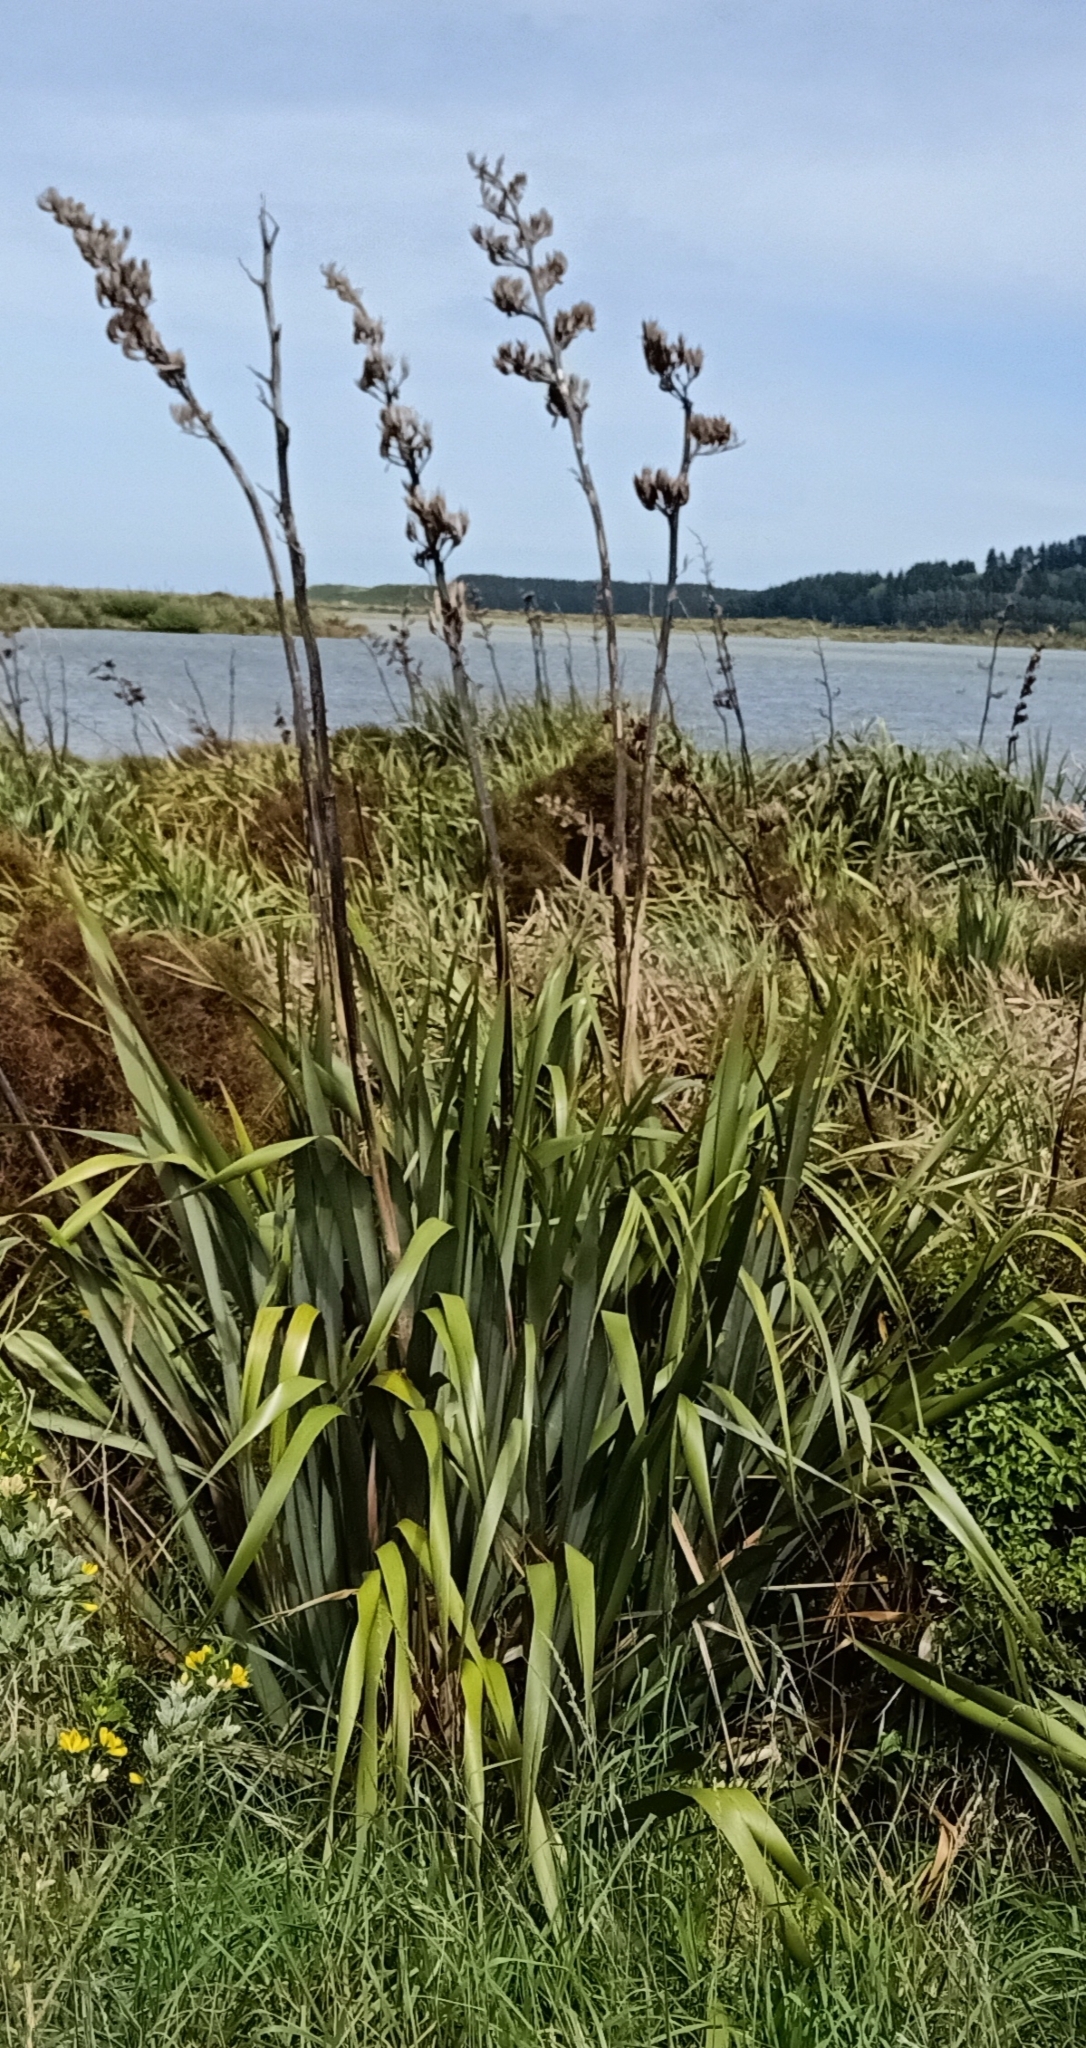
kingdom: Plantae
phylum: Tracheophyta
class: Liliopsida
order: Asparagales
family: Asphodelaceae
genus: Phormium
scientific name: Phormium tenax
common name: New zealand flax
